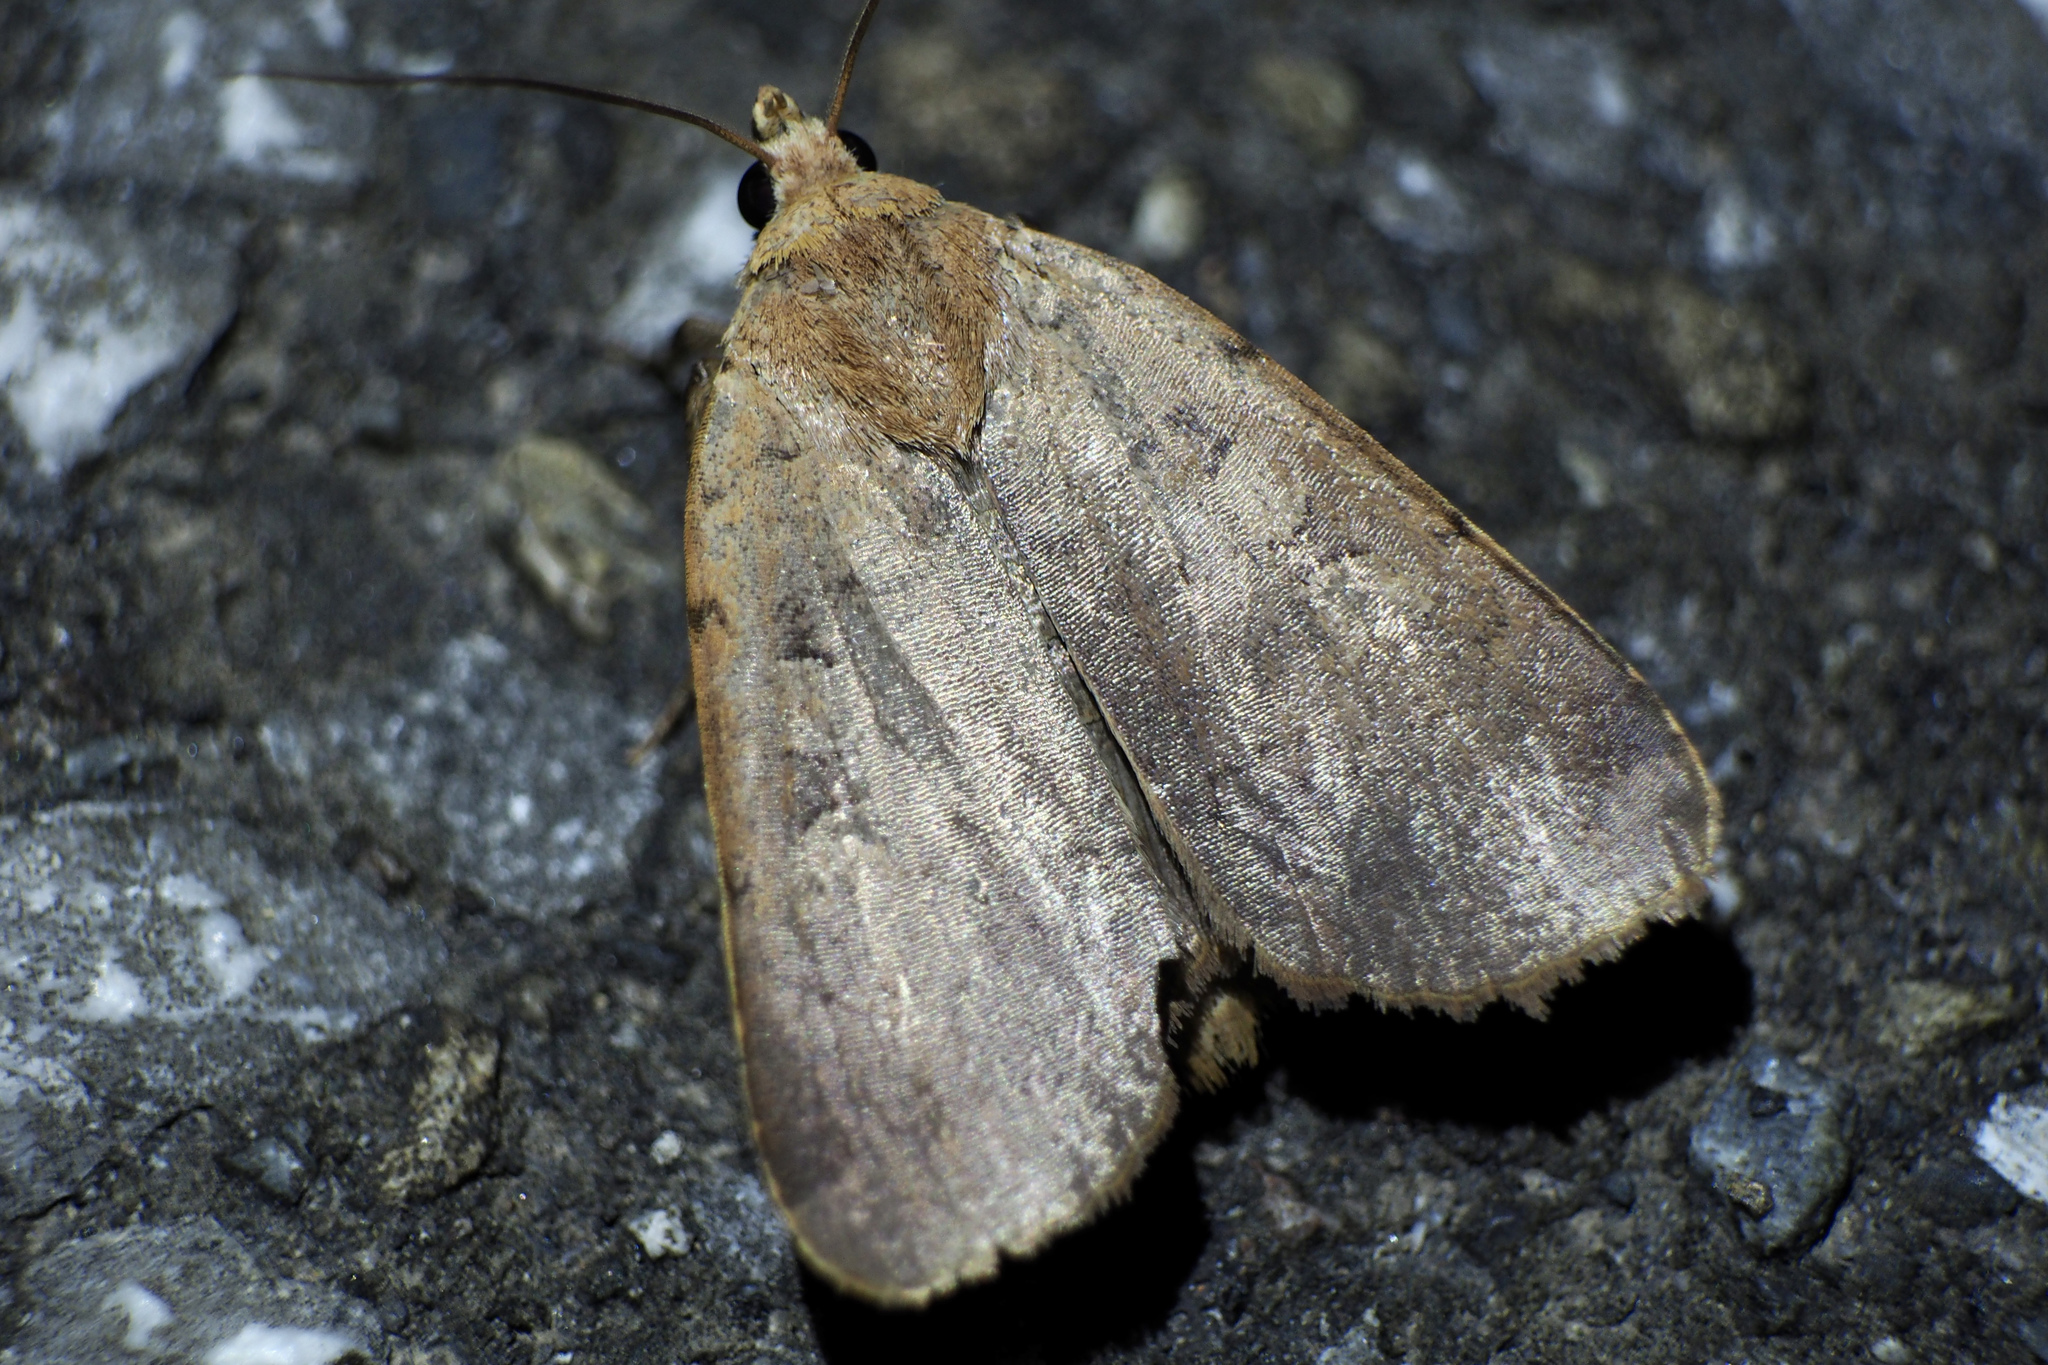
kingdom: Animalia
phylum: Arthropoda
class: Insecta
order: Lepidoptera
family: Noctuidae
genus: Sineugraphe
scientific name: Sineugraphe exusta
